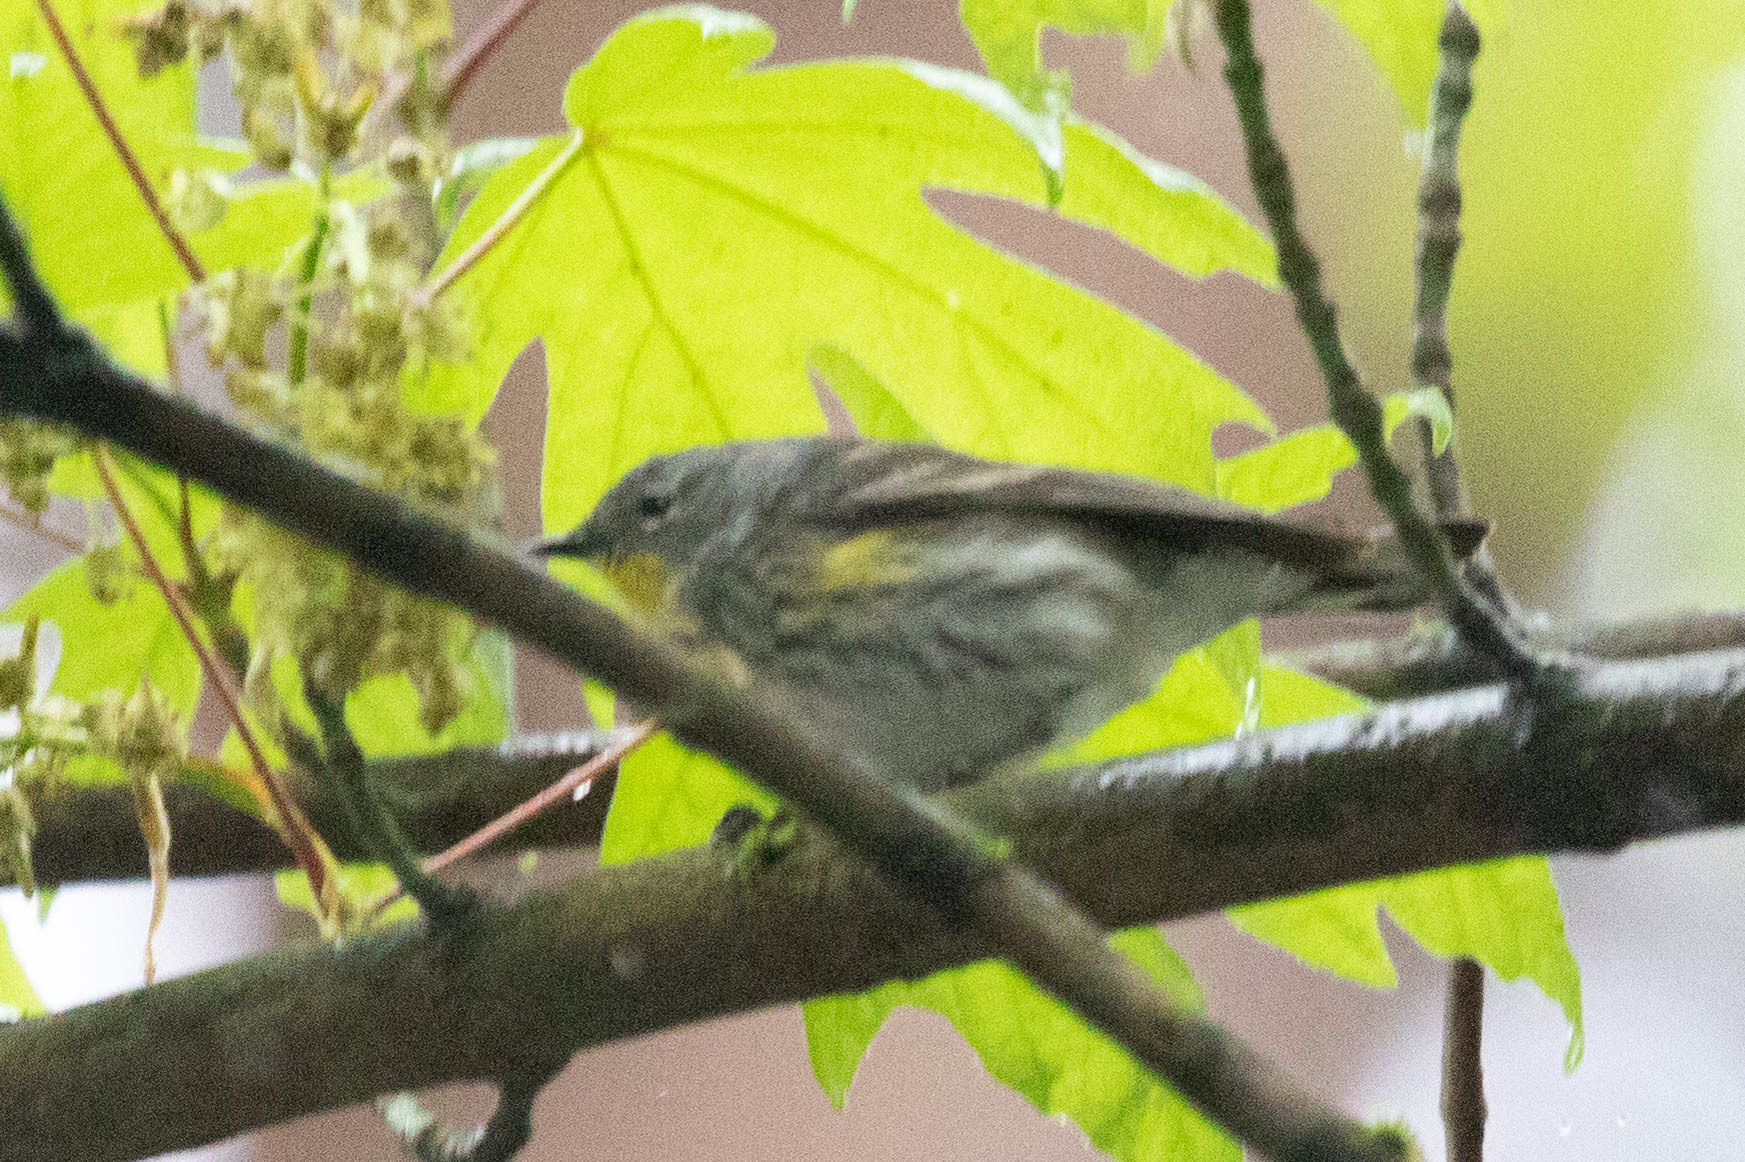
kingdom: Animalia
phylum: Chordata
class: Aves
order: Passeriformes
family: Parulidae
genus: Setophaga
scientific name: Setophaga auduboni
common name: Audubon's warbler
